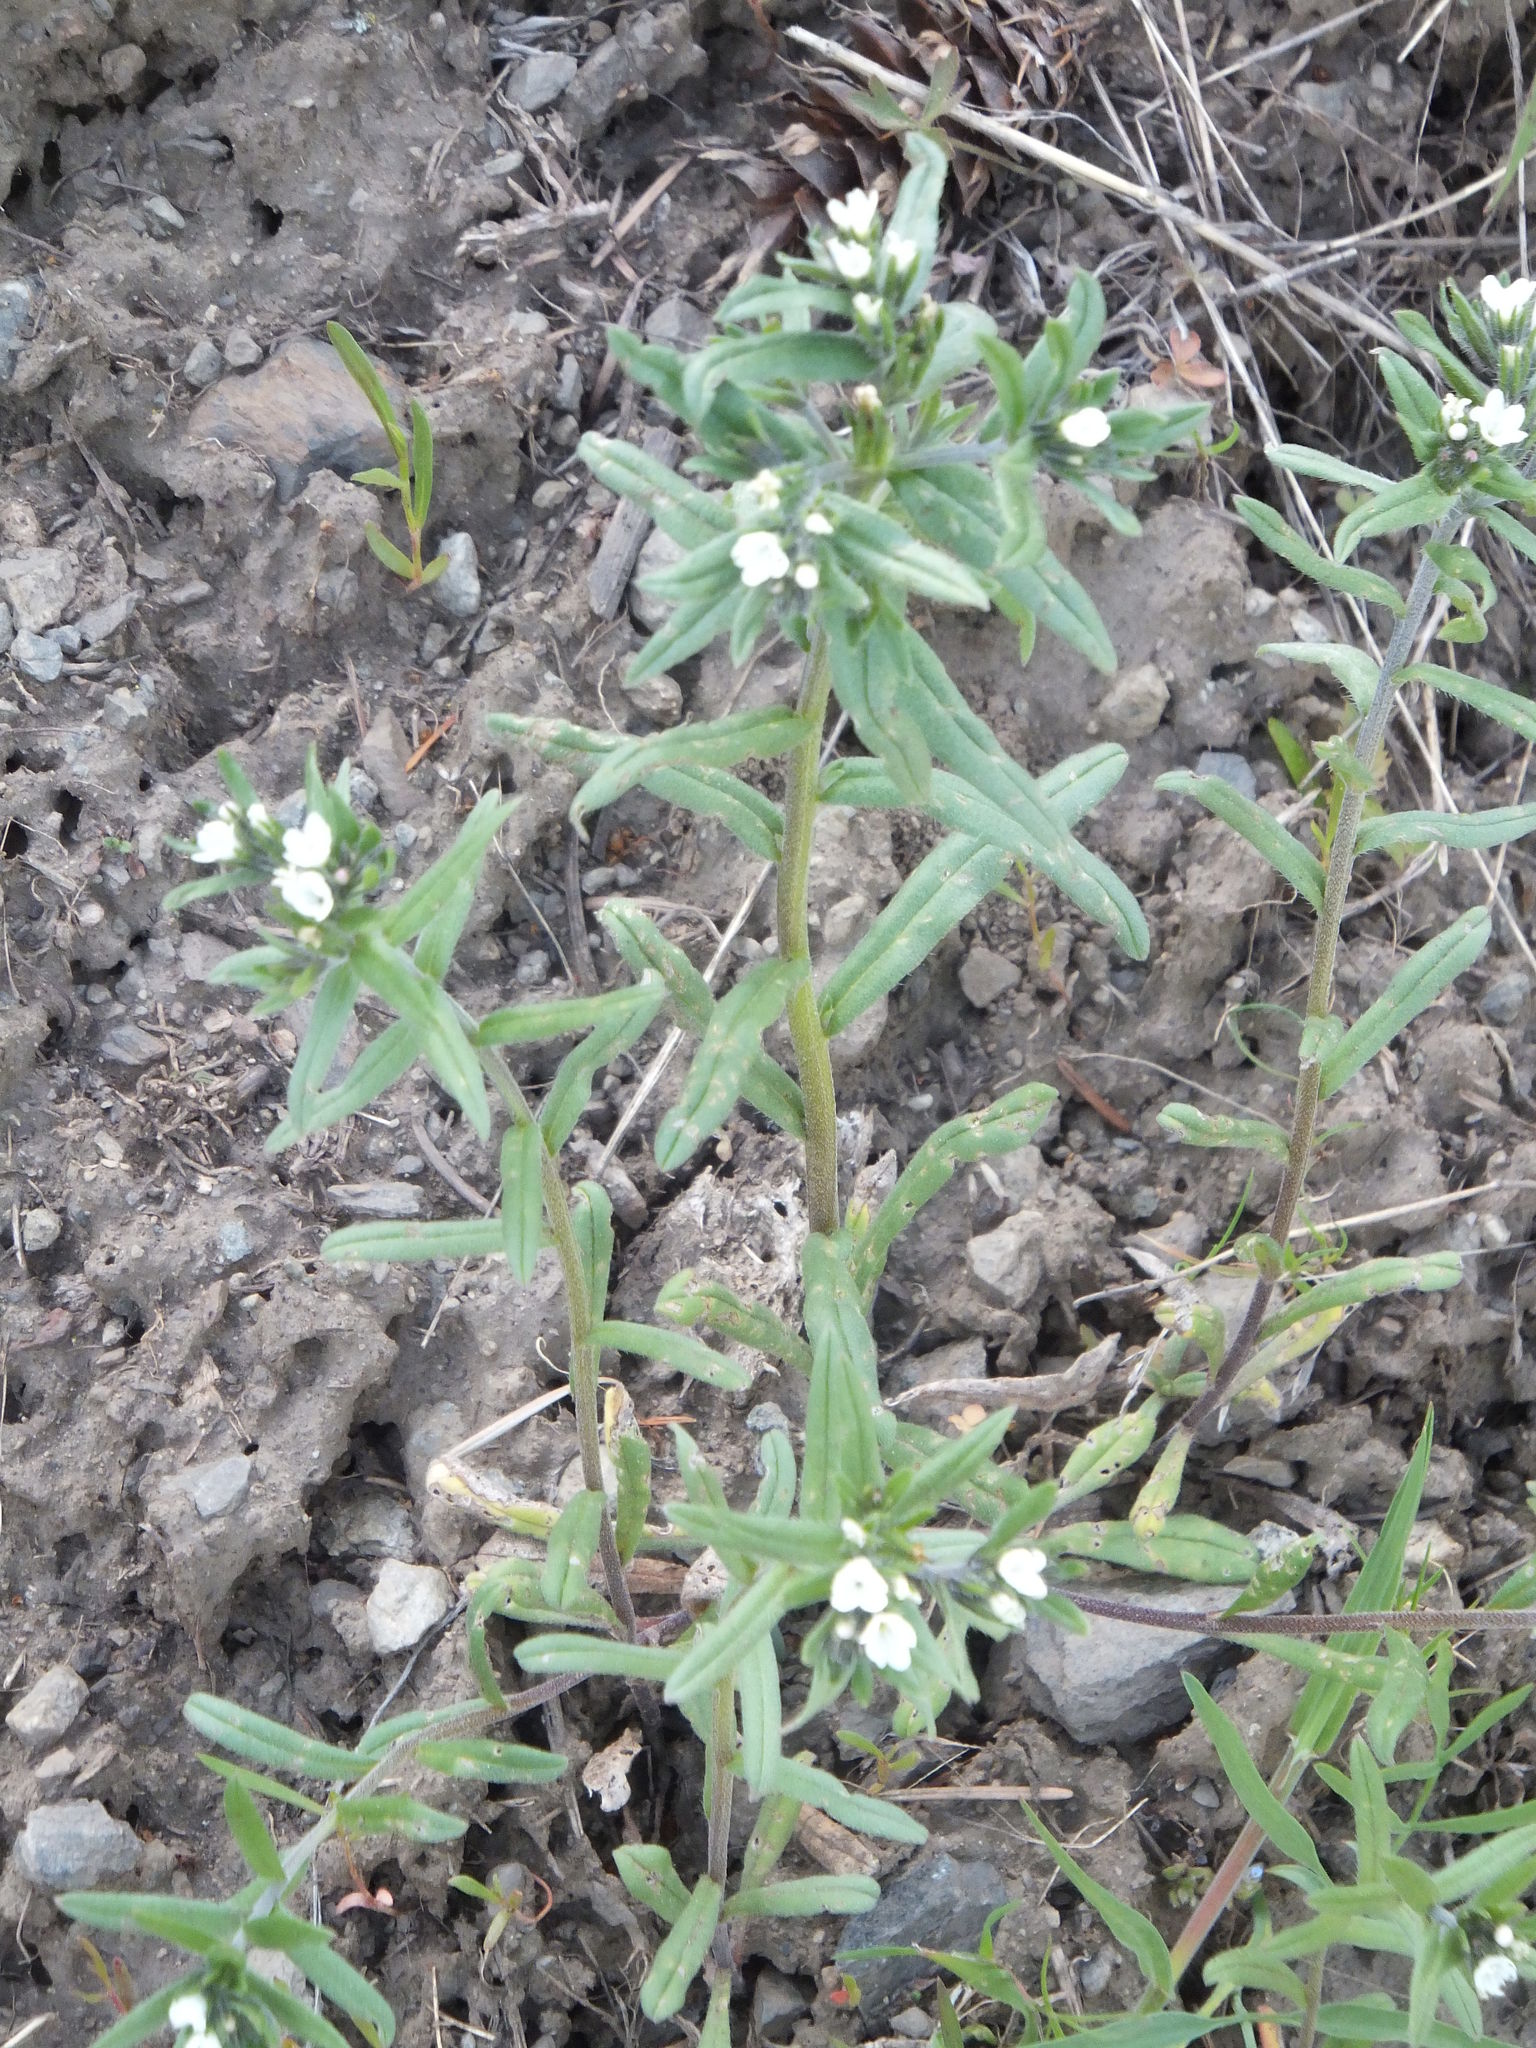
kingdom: Plantae
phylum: Tracheophyta
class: Magnoliopsida
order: Boraginales
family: Boraginaceae
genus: Buglossoides
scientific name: Buglossoides arvensis
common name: Corn gromwell
